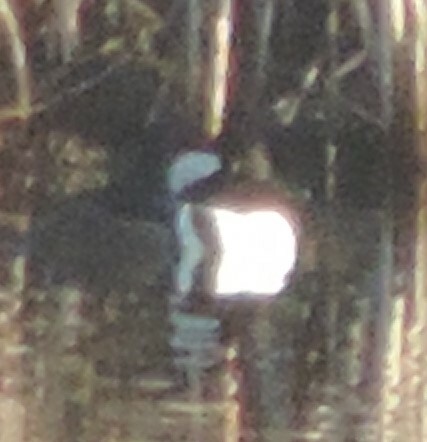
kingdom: Animalia
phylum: Chordata
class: Aves
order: Anseriformes
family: Anatidae
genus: Lophodytes
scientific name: Lophodytes cucullatus
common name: Hooded merganser
